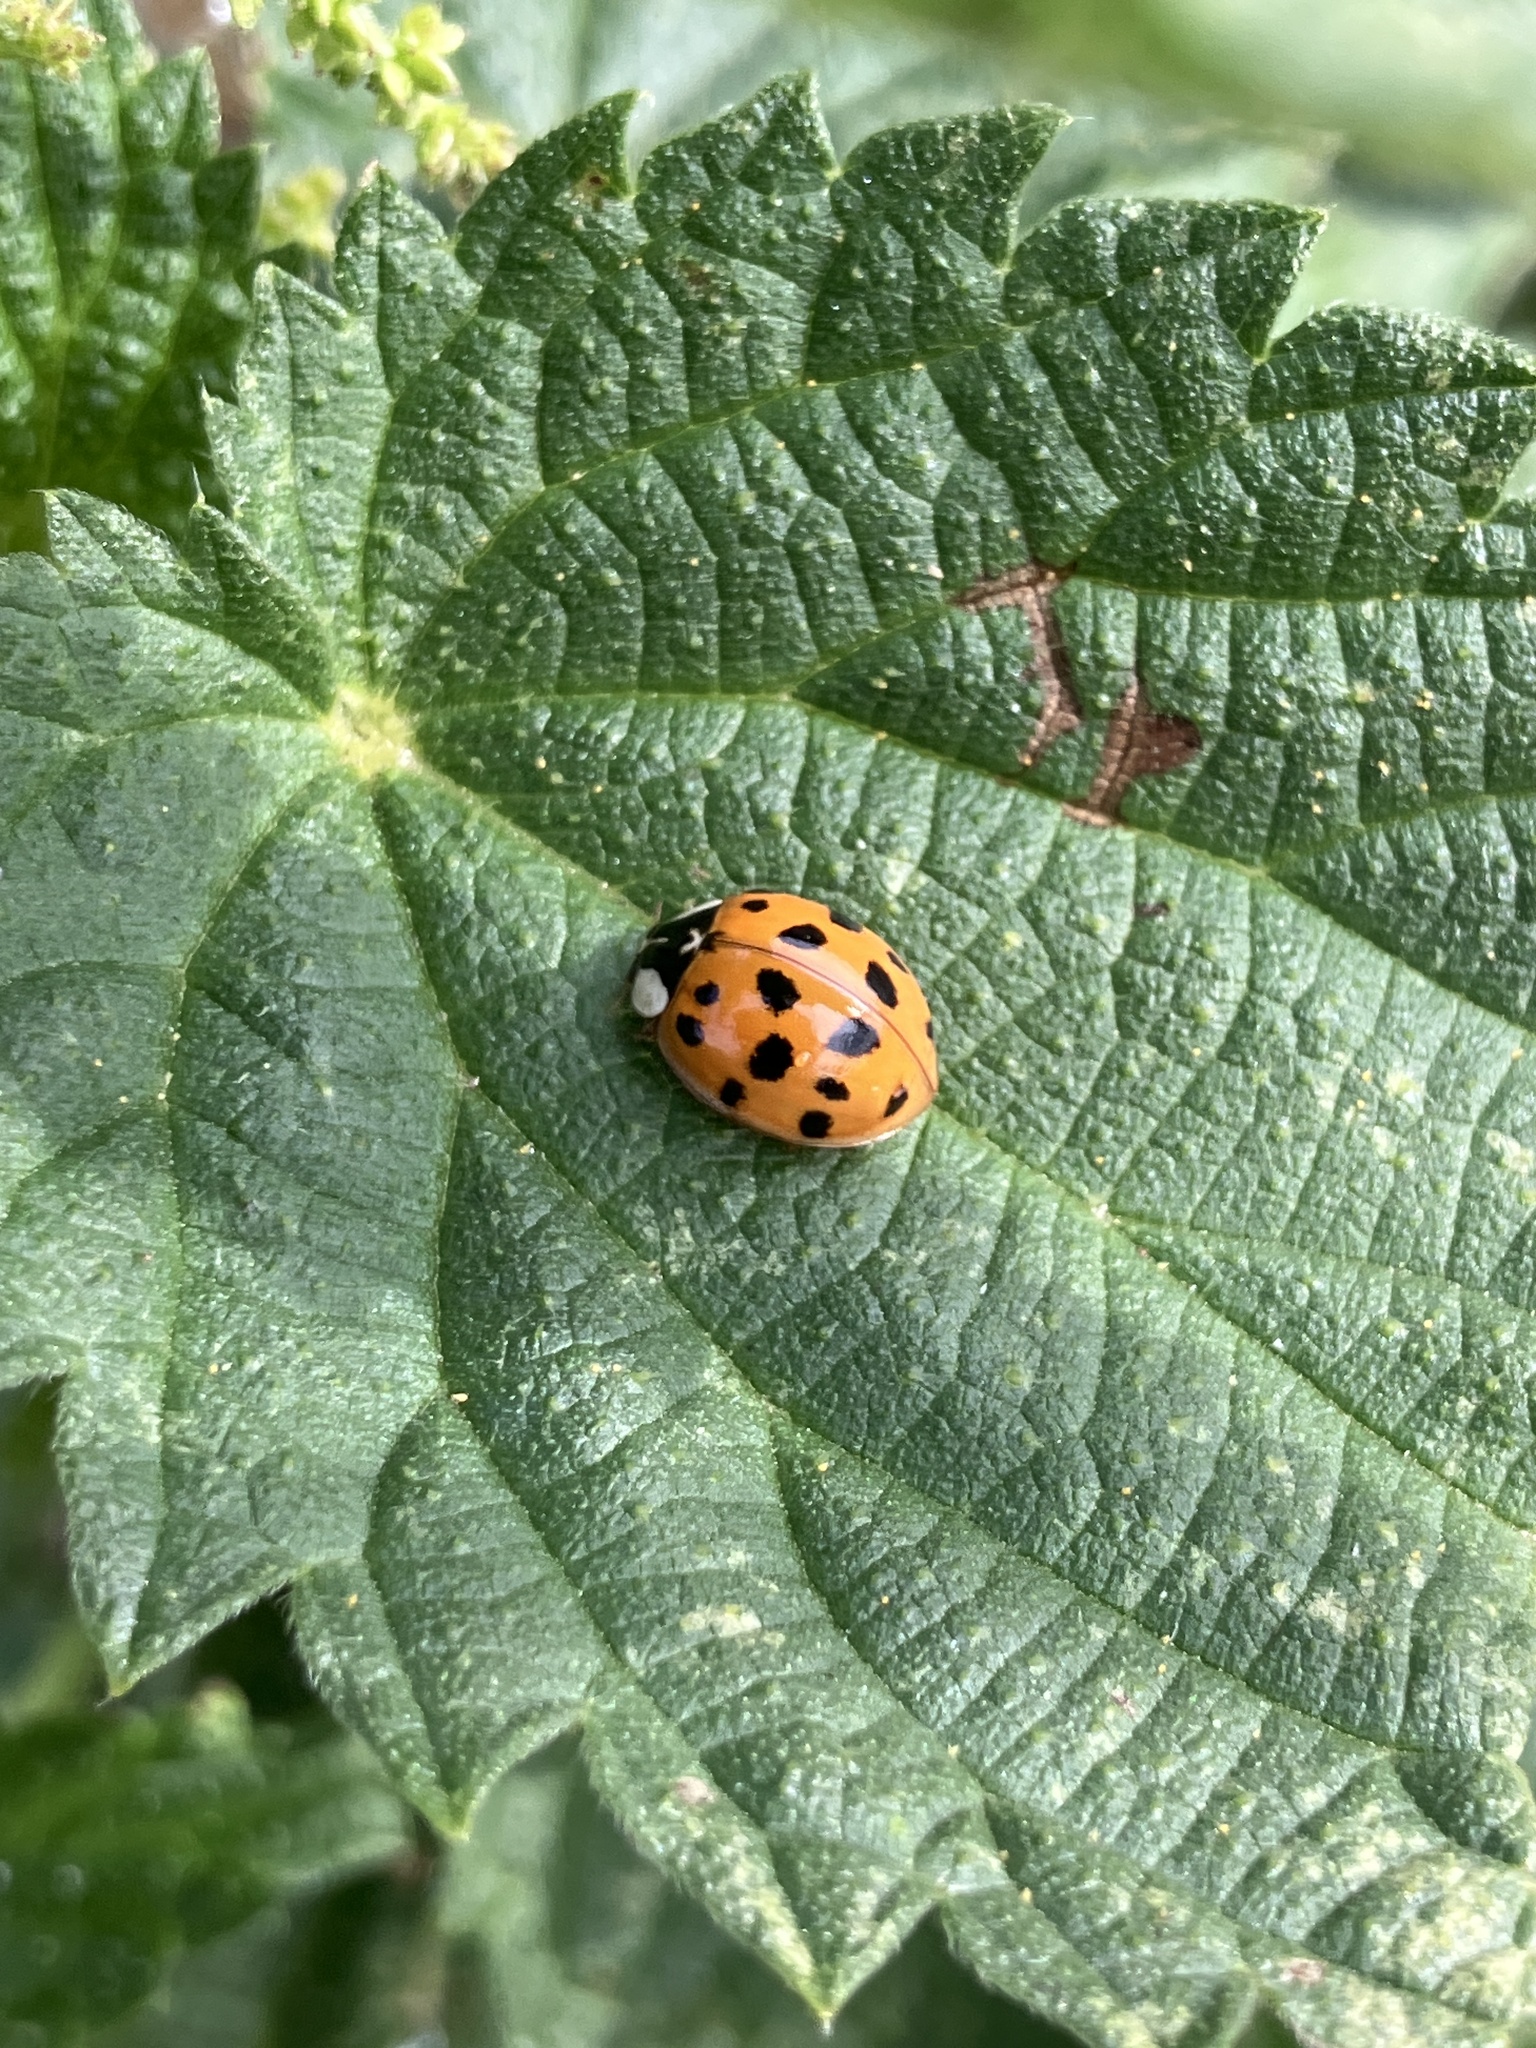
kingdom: Animalia
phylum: Arthropoda
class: Insecta
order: Coleoptera
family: Coccinellidae
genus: Harmonia
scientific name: Harmonia axyridis
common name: Harlequin ladybird
